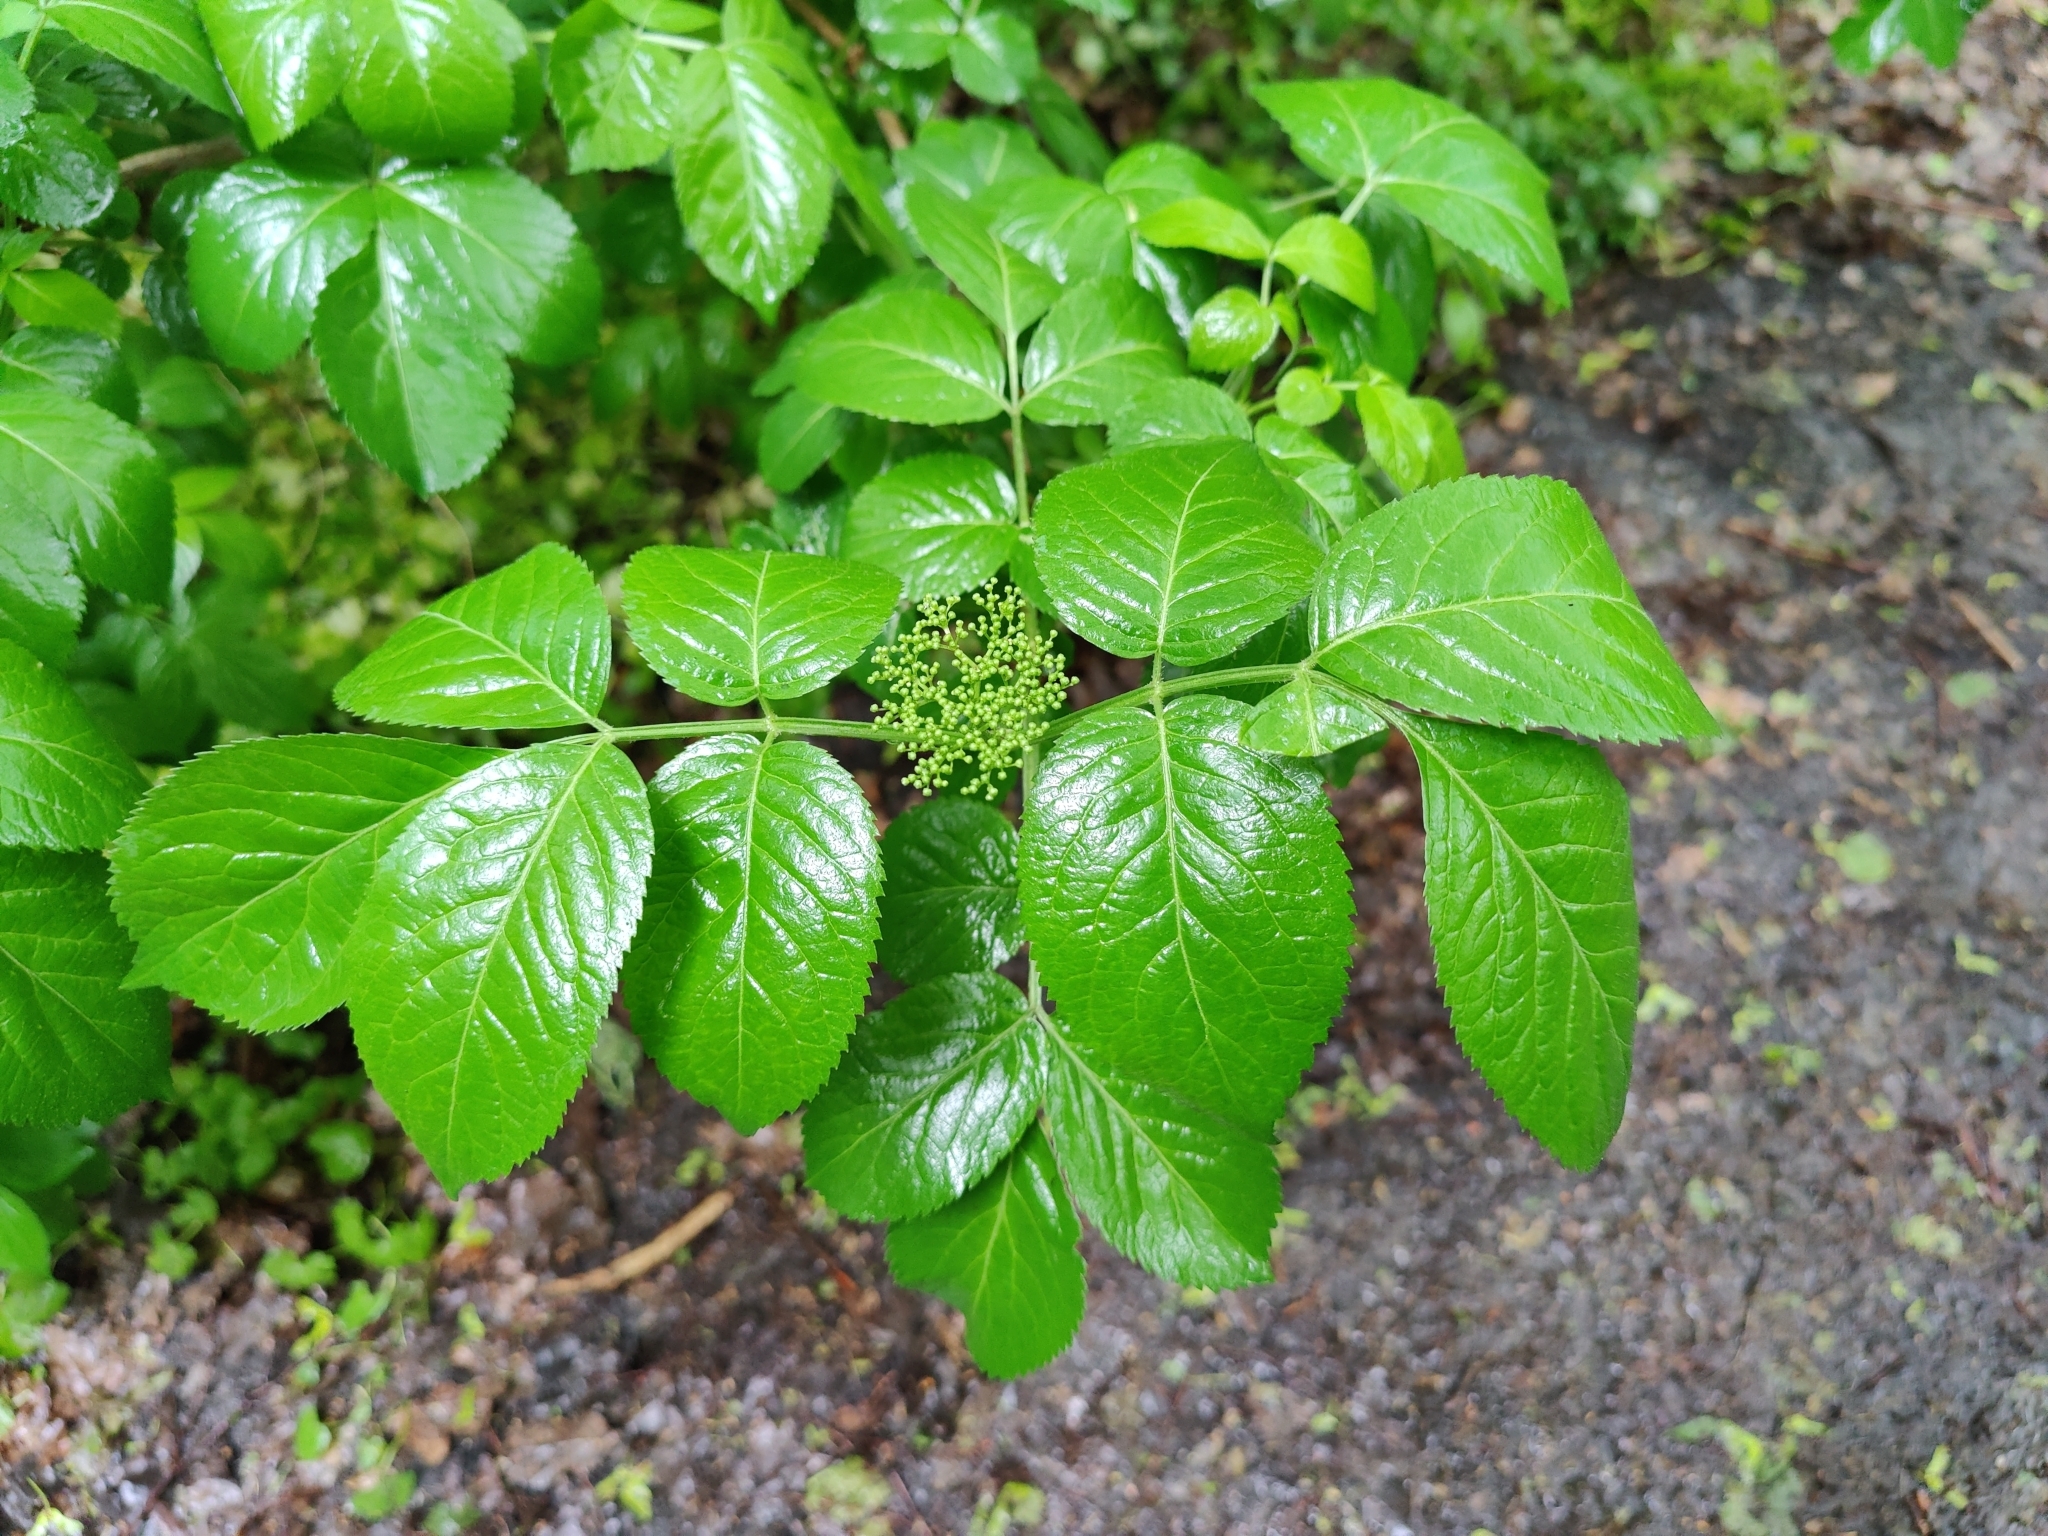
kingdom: Plantae
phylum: Tracheophyta
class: Magnoliopsida
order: Dipsacales
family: Viburnaceae
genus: Sambucus
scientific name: Sambucus nigra
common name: Elder
